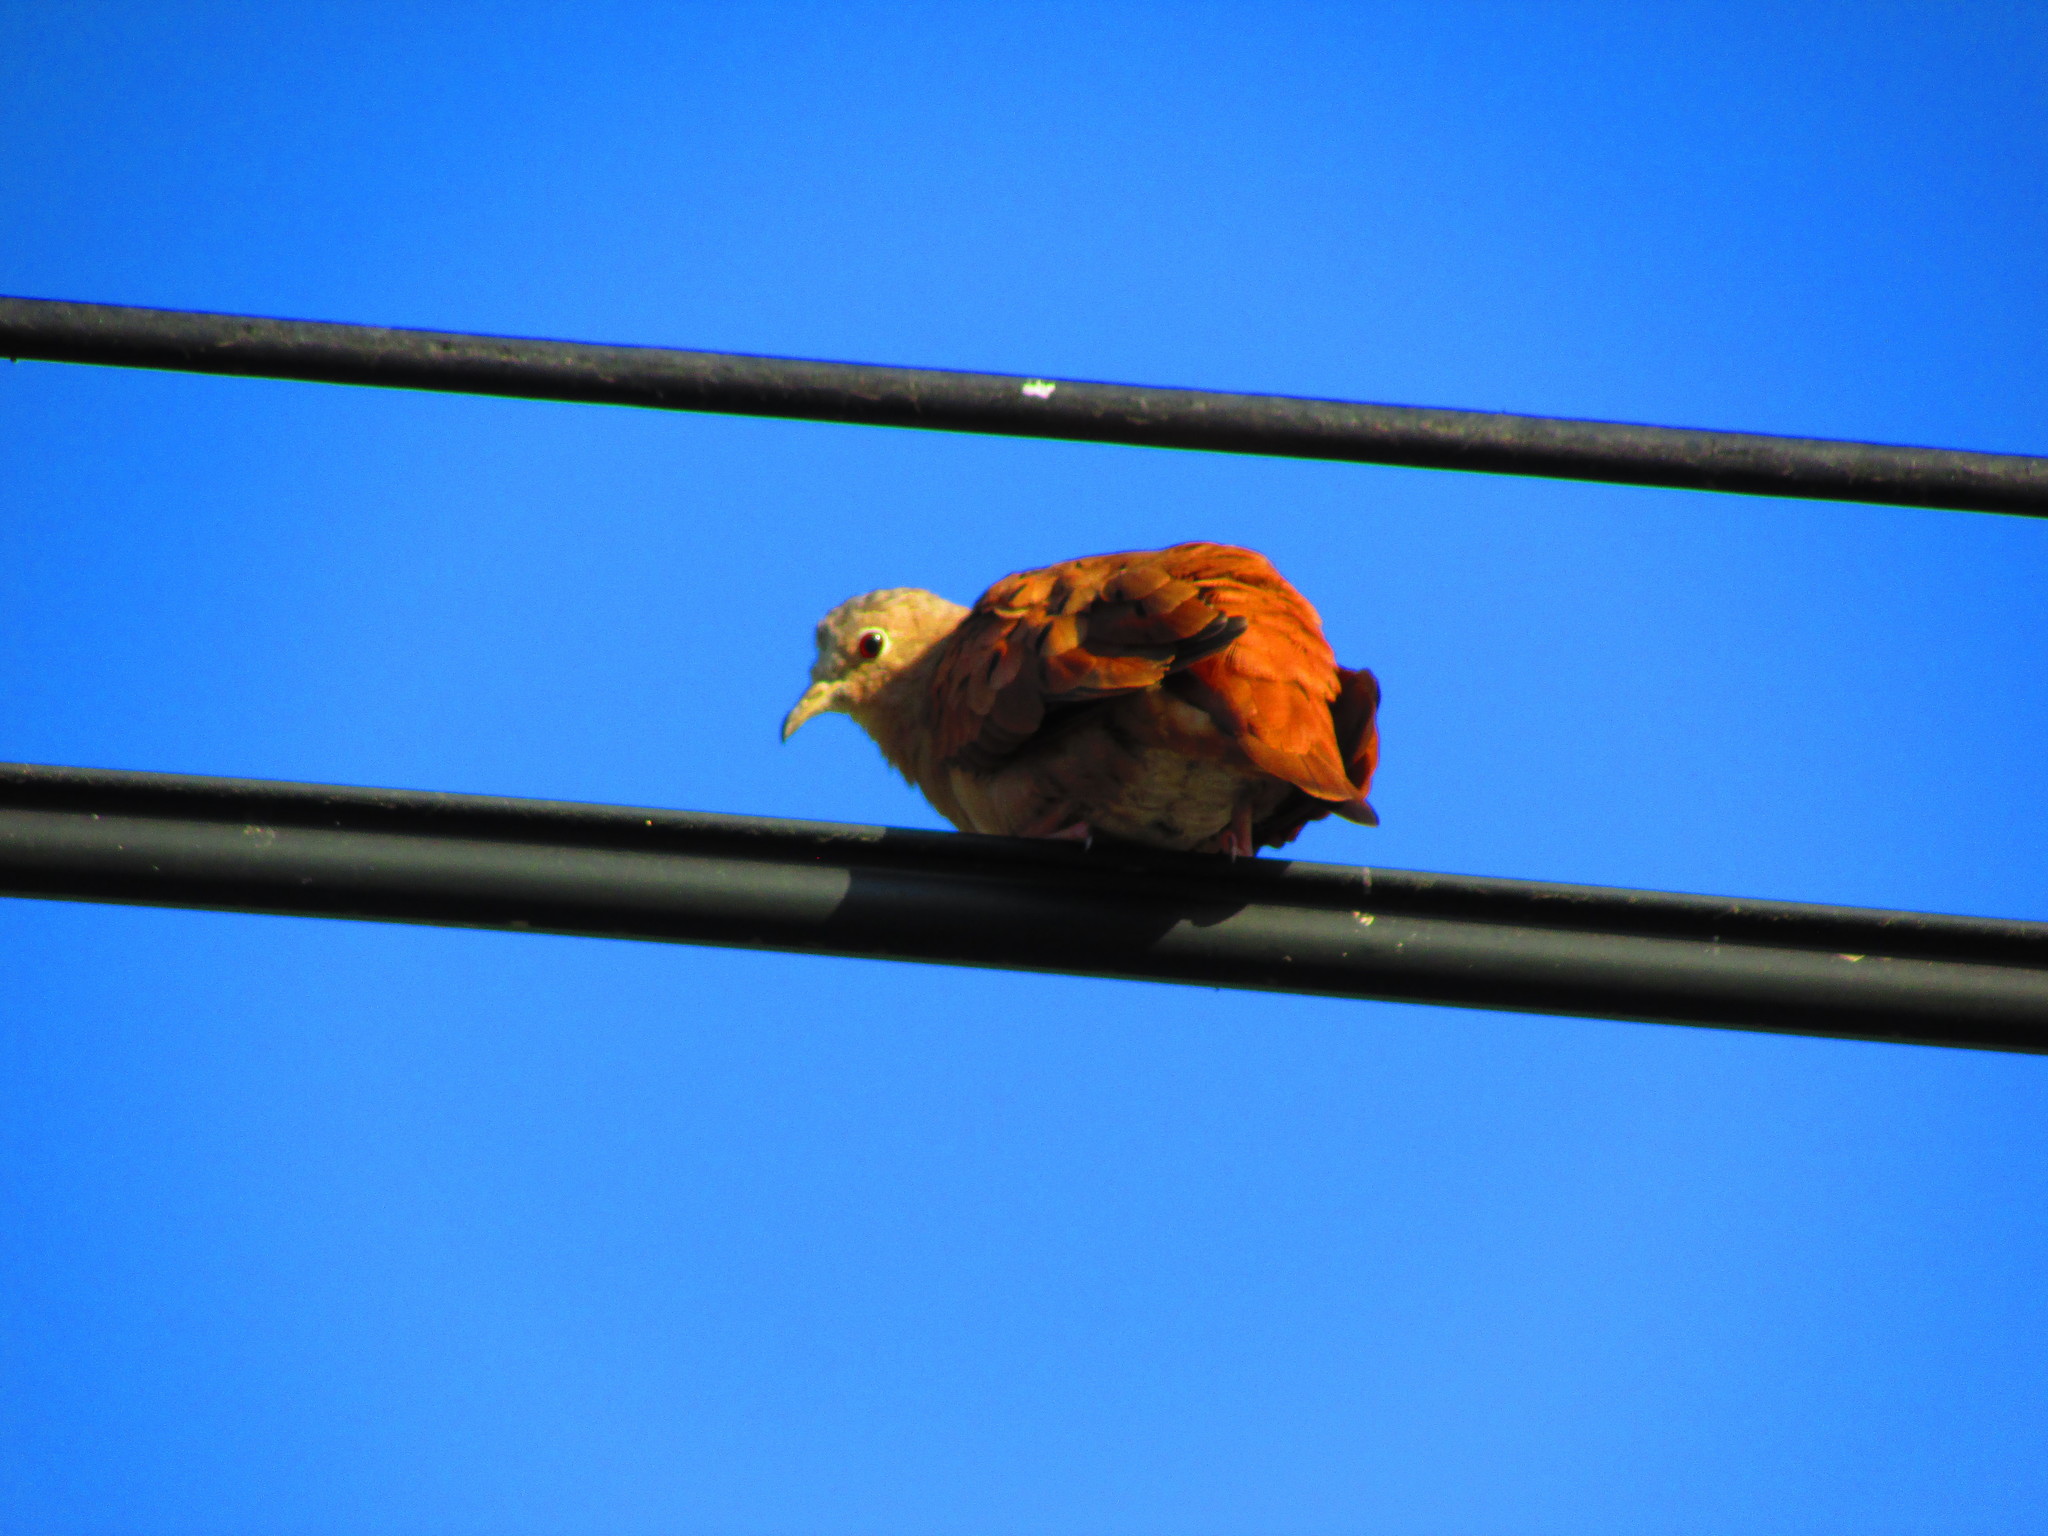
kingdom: Animalia
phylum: Chordata
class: Aves
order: Columbiformes
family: Columbidae
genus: Columbina
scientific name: Columbina talpacoti
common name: Ruddy ground dove
